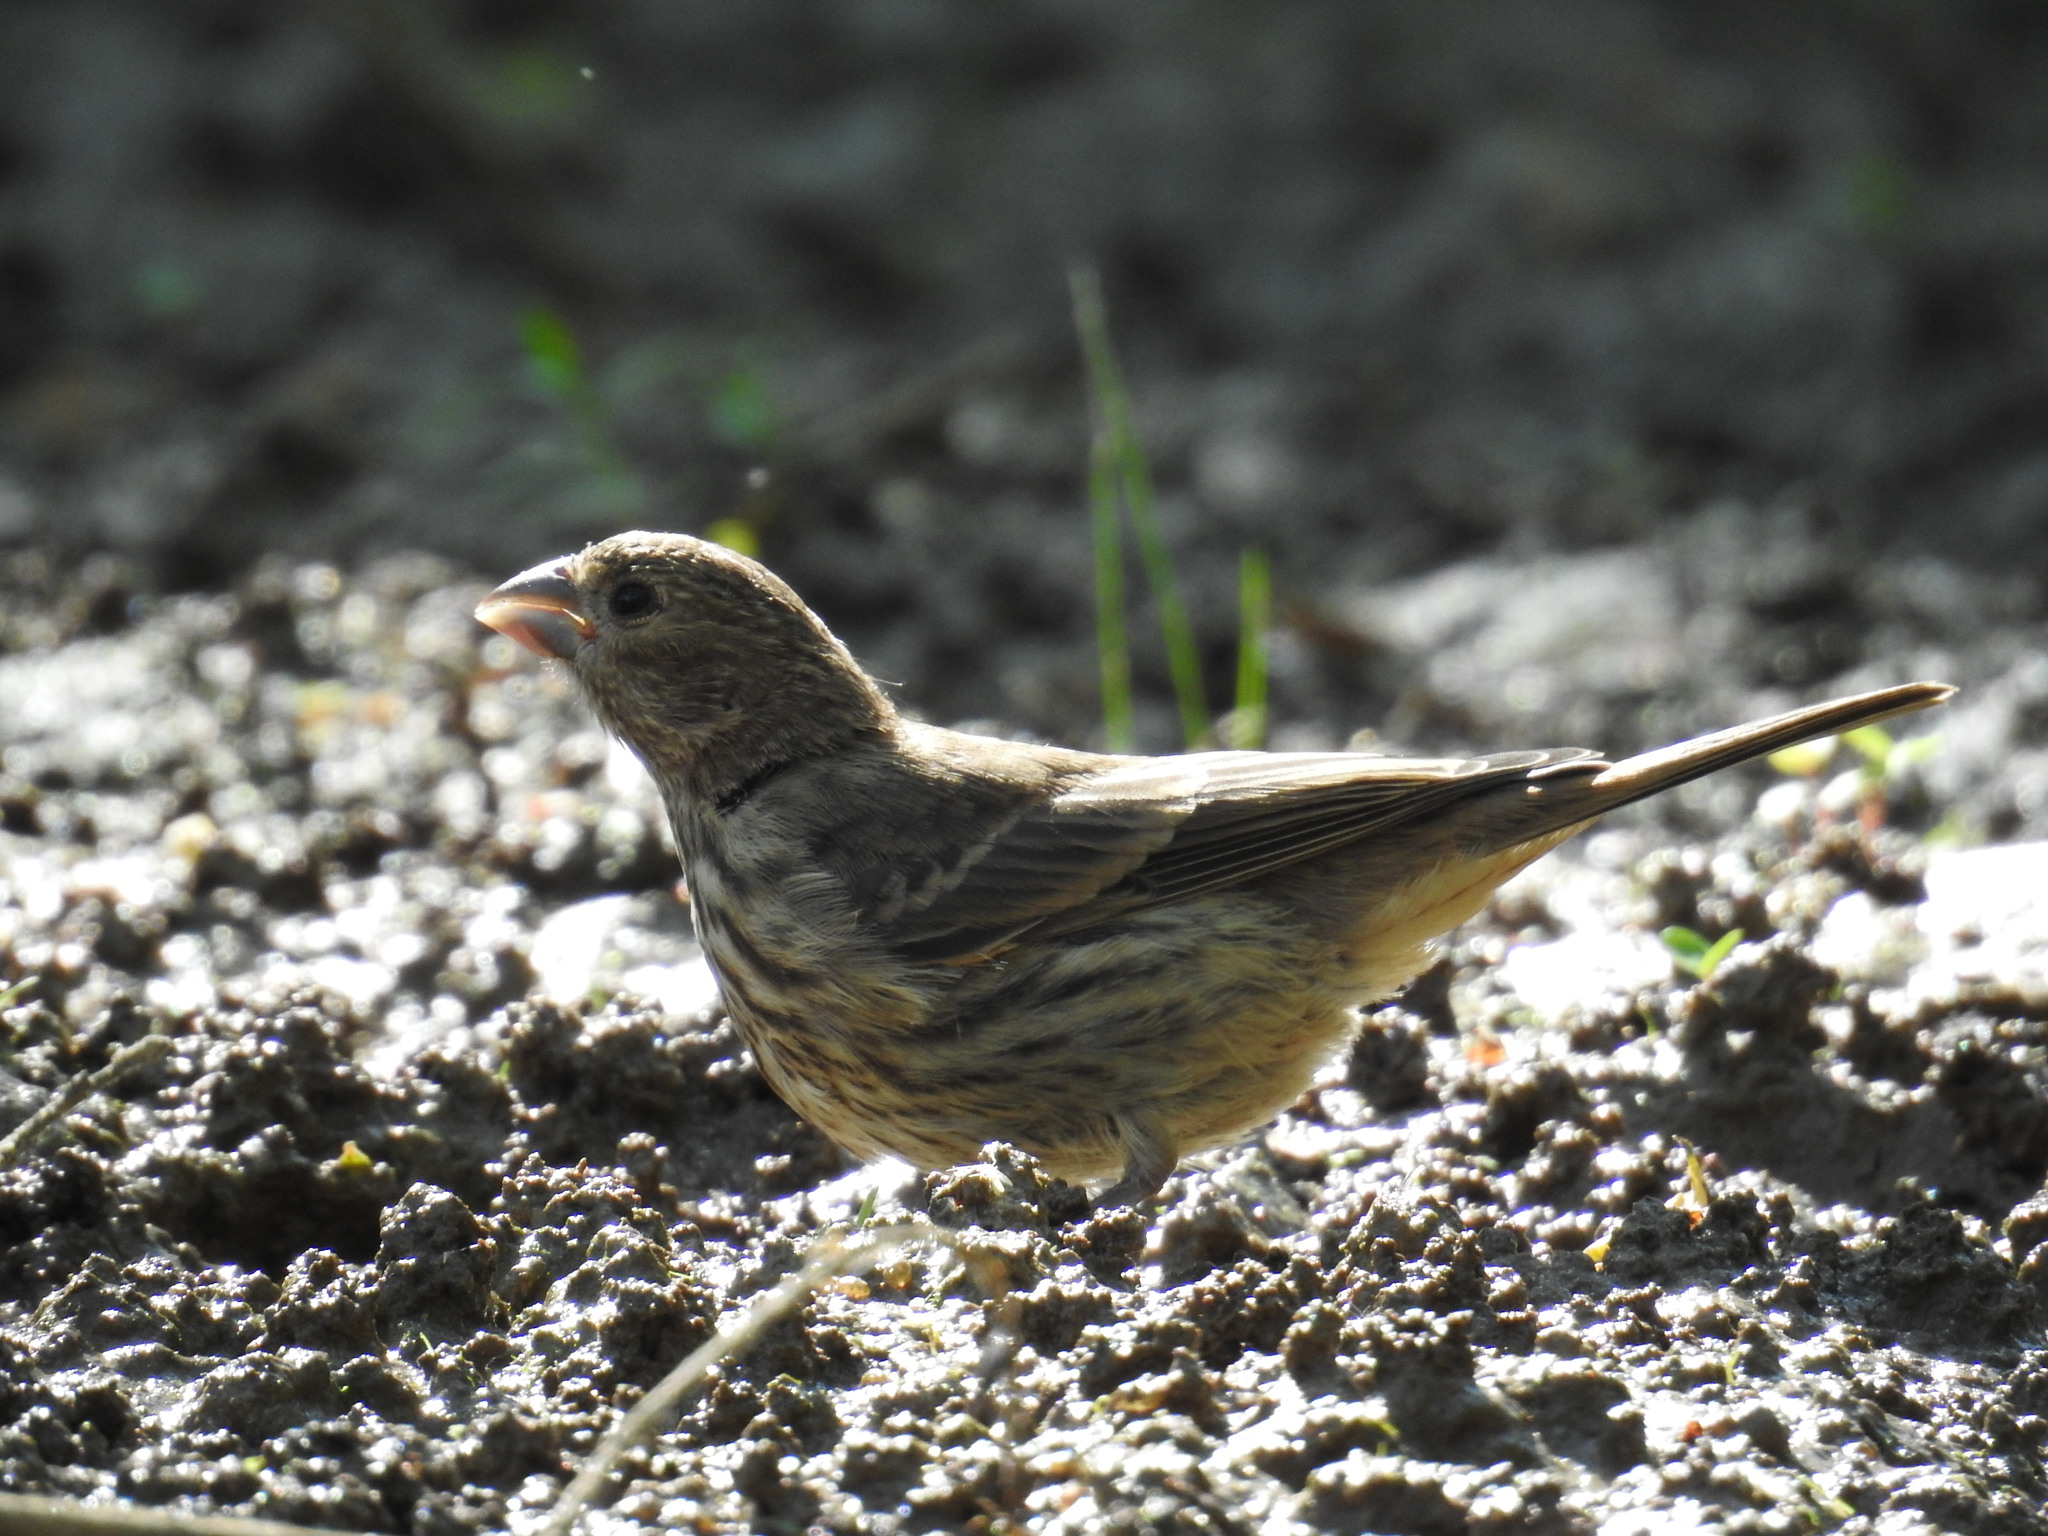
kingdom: Animalia
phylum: Chordata
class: Aves
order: Passeriformes
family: Fringillidae
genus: Haemorhous
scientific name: Haemorhous mexicanus
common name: House finch
